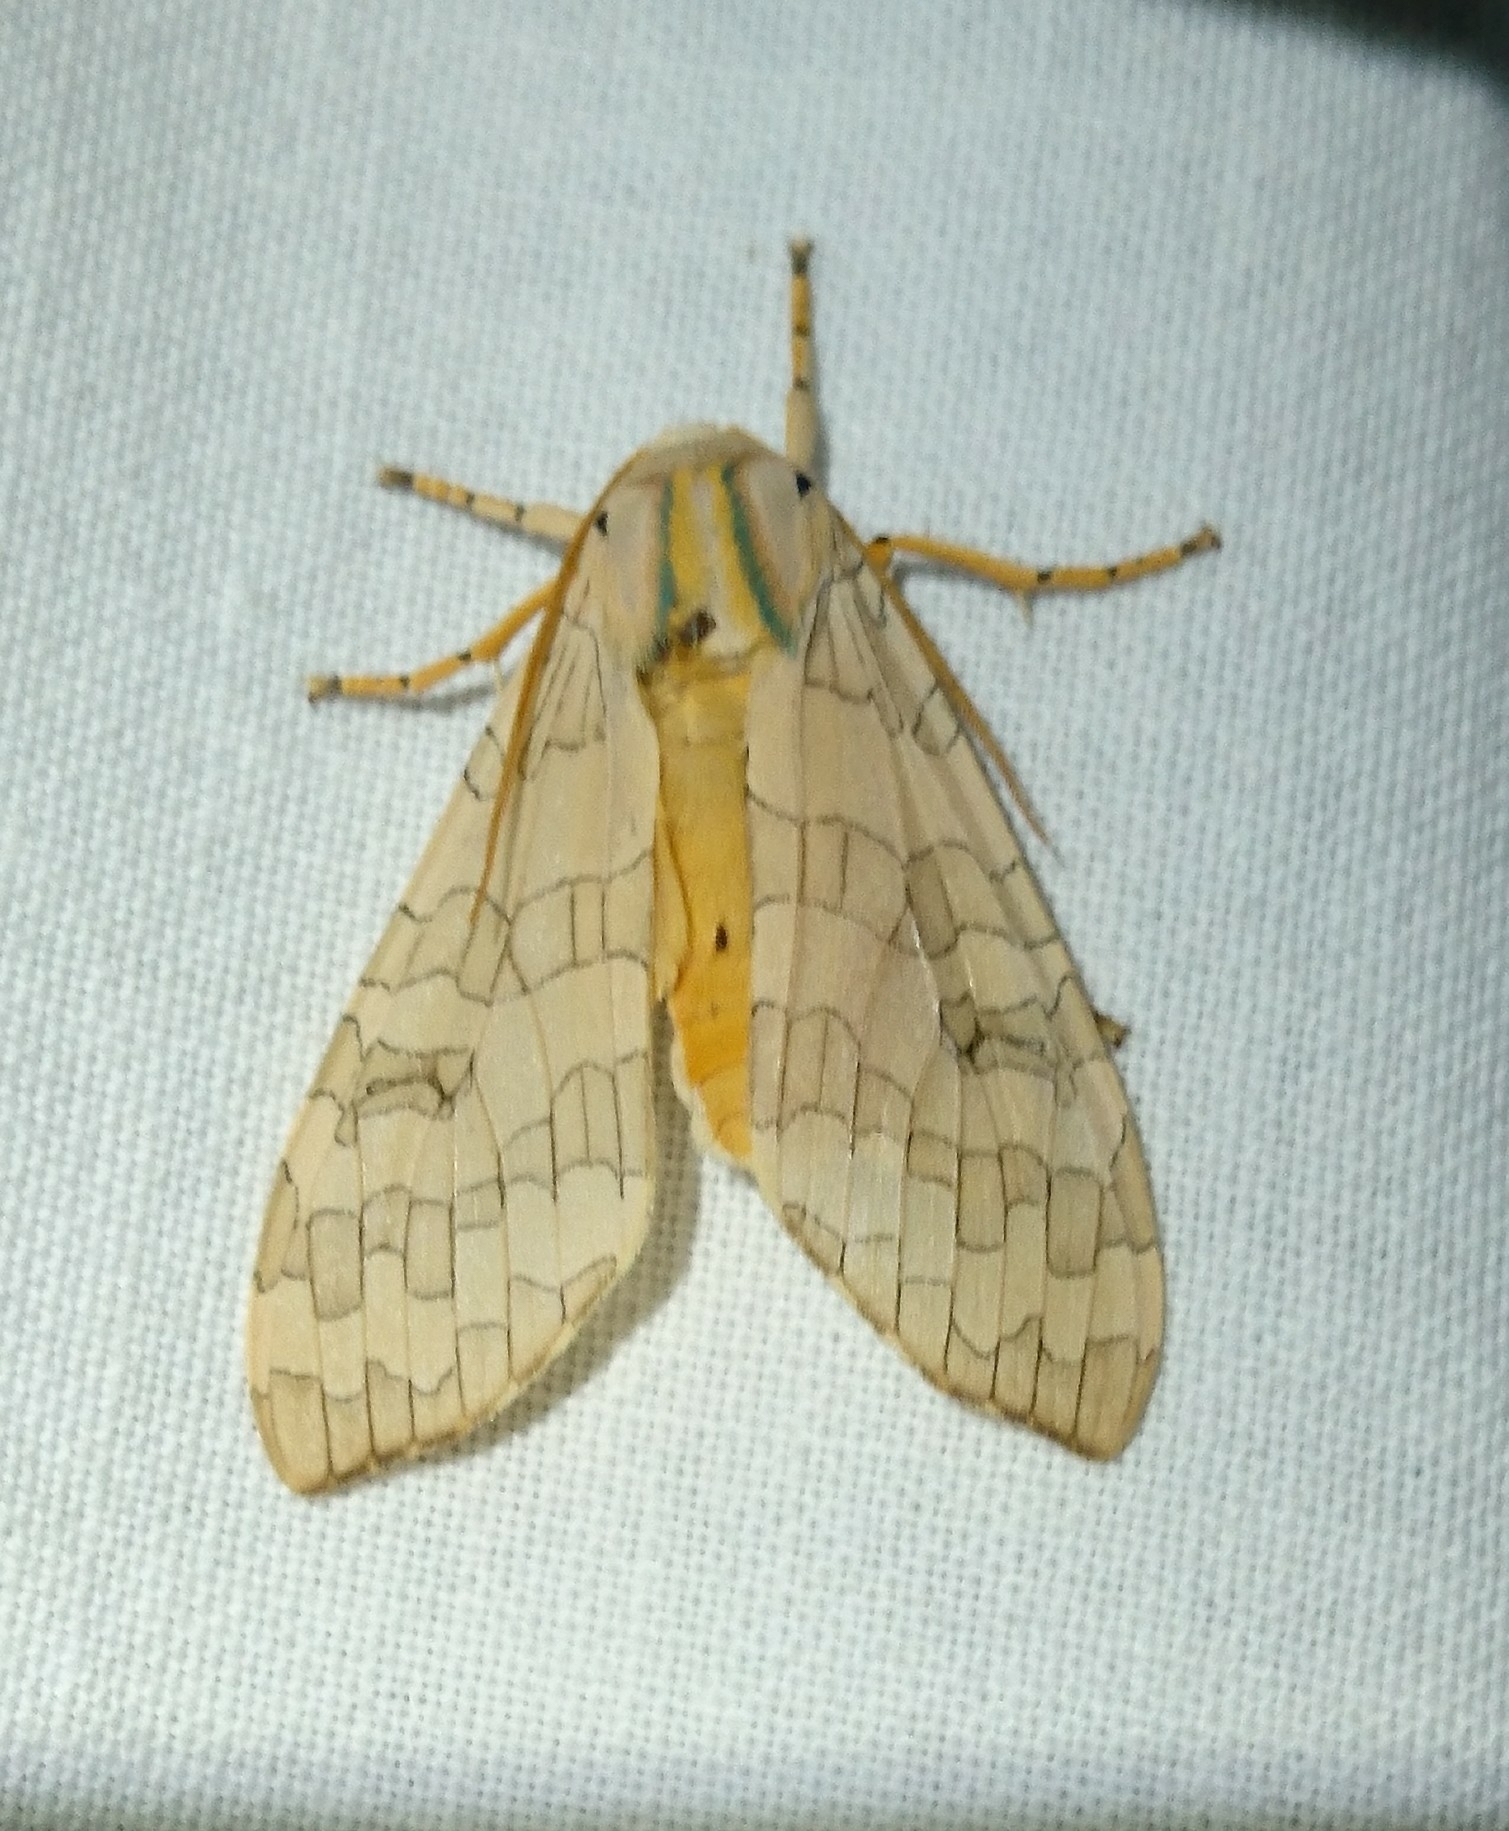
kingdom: Animalia
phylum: Arthropoda
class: Insecta
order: Lepidoptera
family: Erebidae
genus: Halysidota
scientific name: Halysidota
